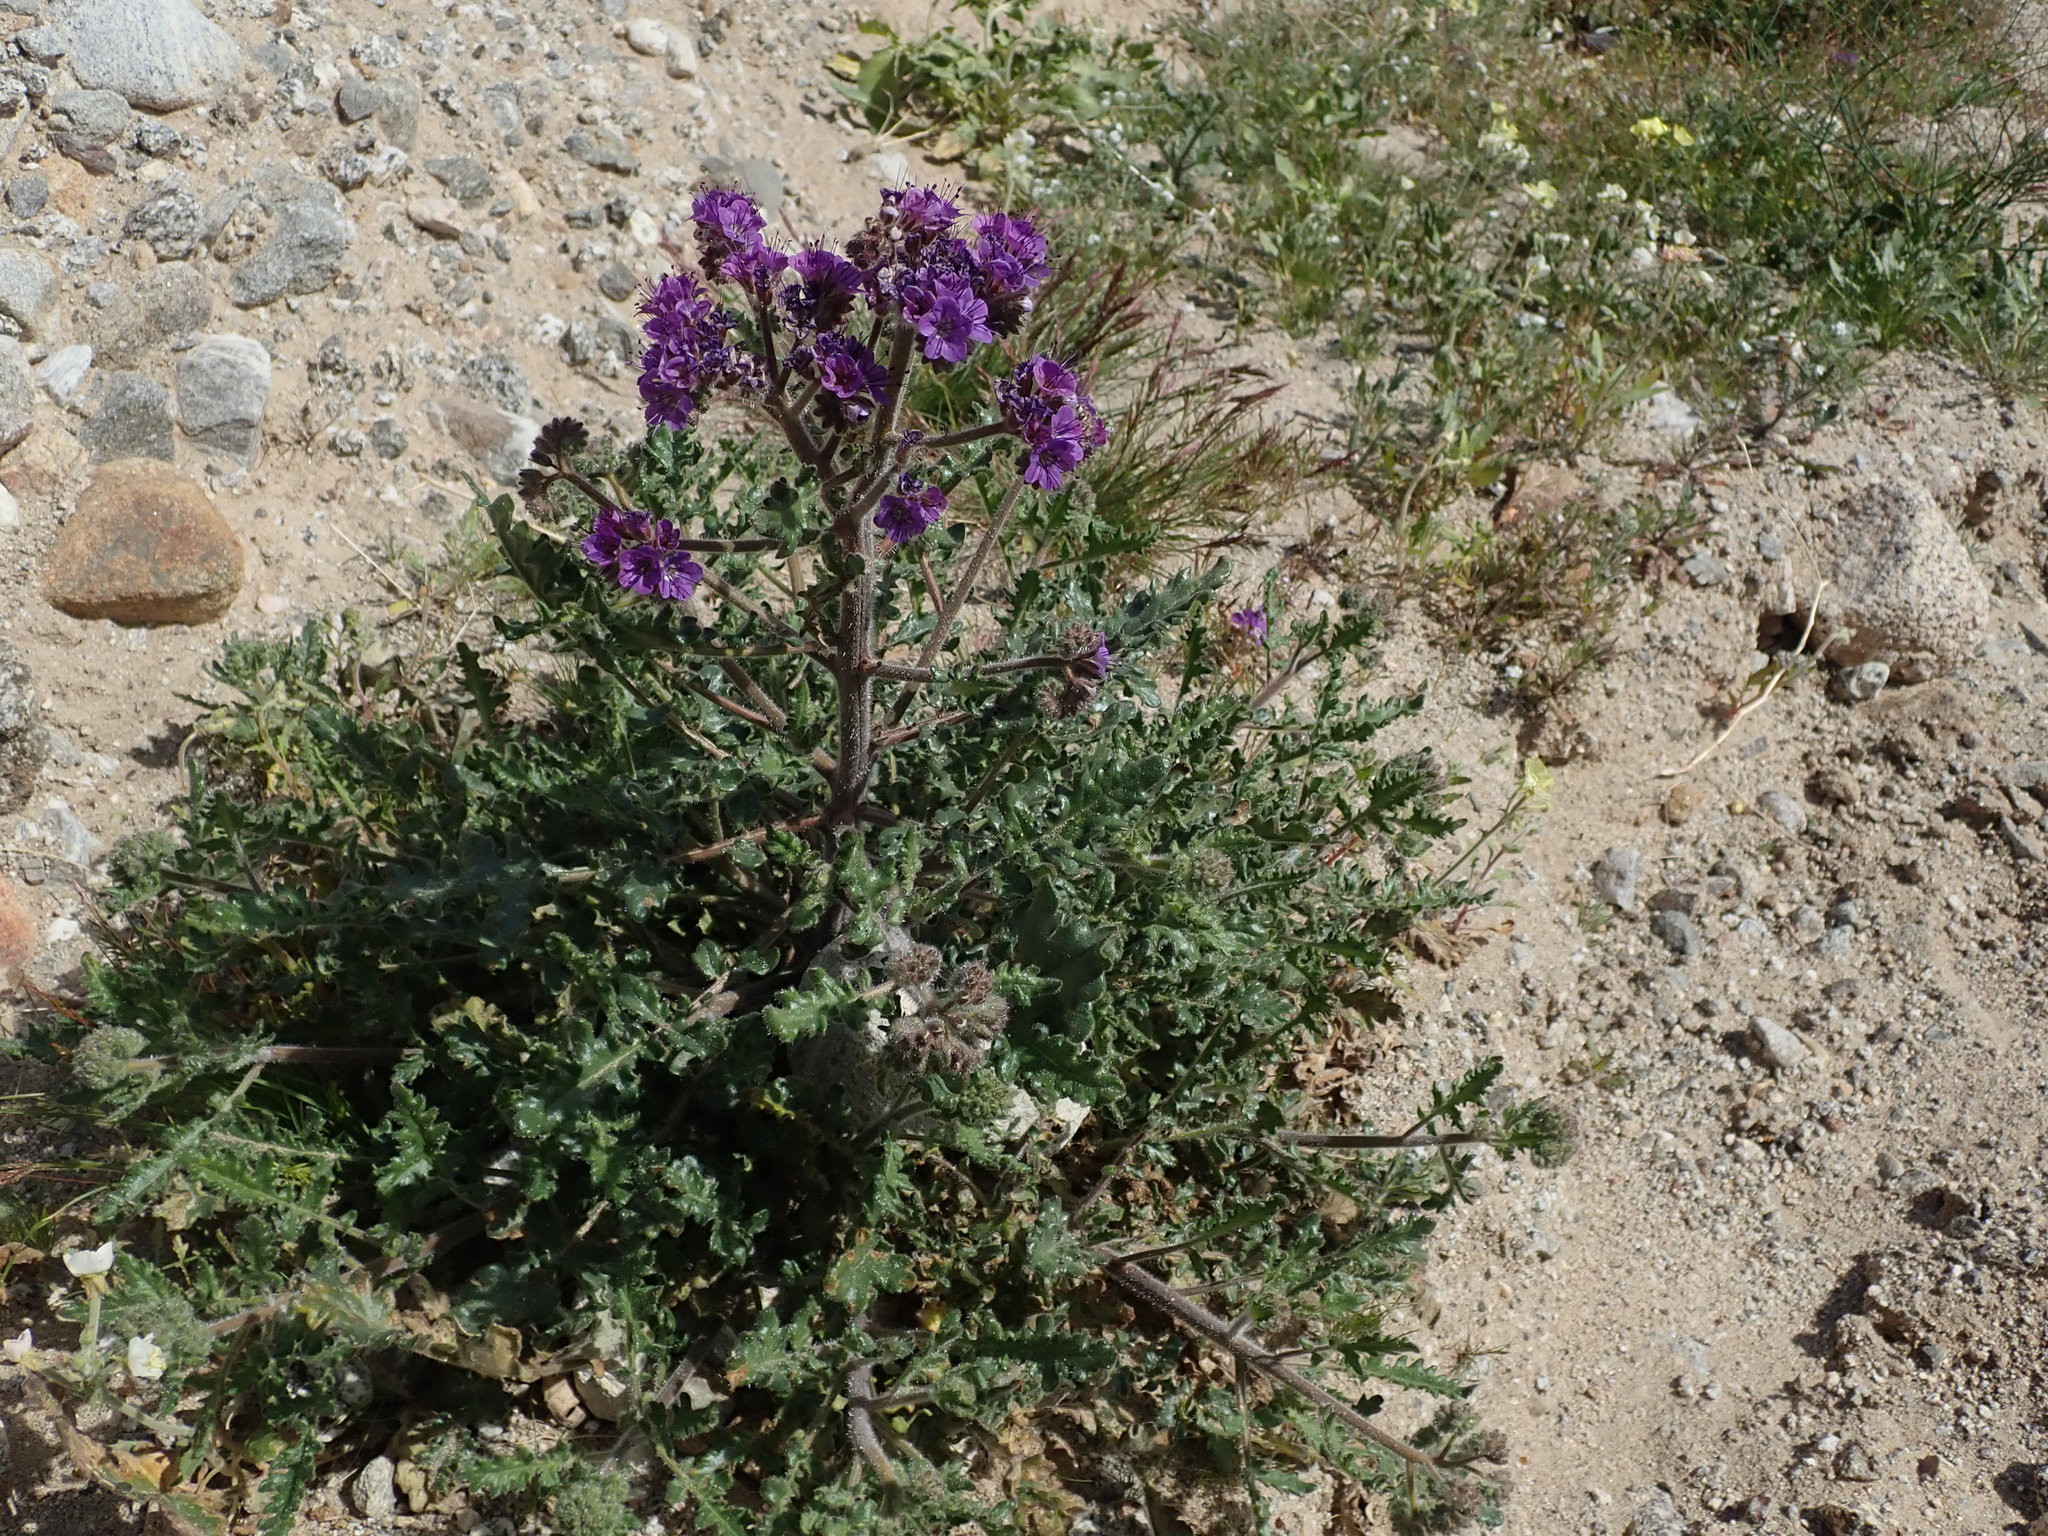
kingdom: Plantae
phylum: Tracheophyta
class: Magnoliopsida
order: Boraginales
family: Hydrophyllaceae
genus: Phacelia
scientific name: Phacelia crenulata
